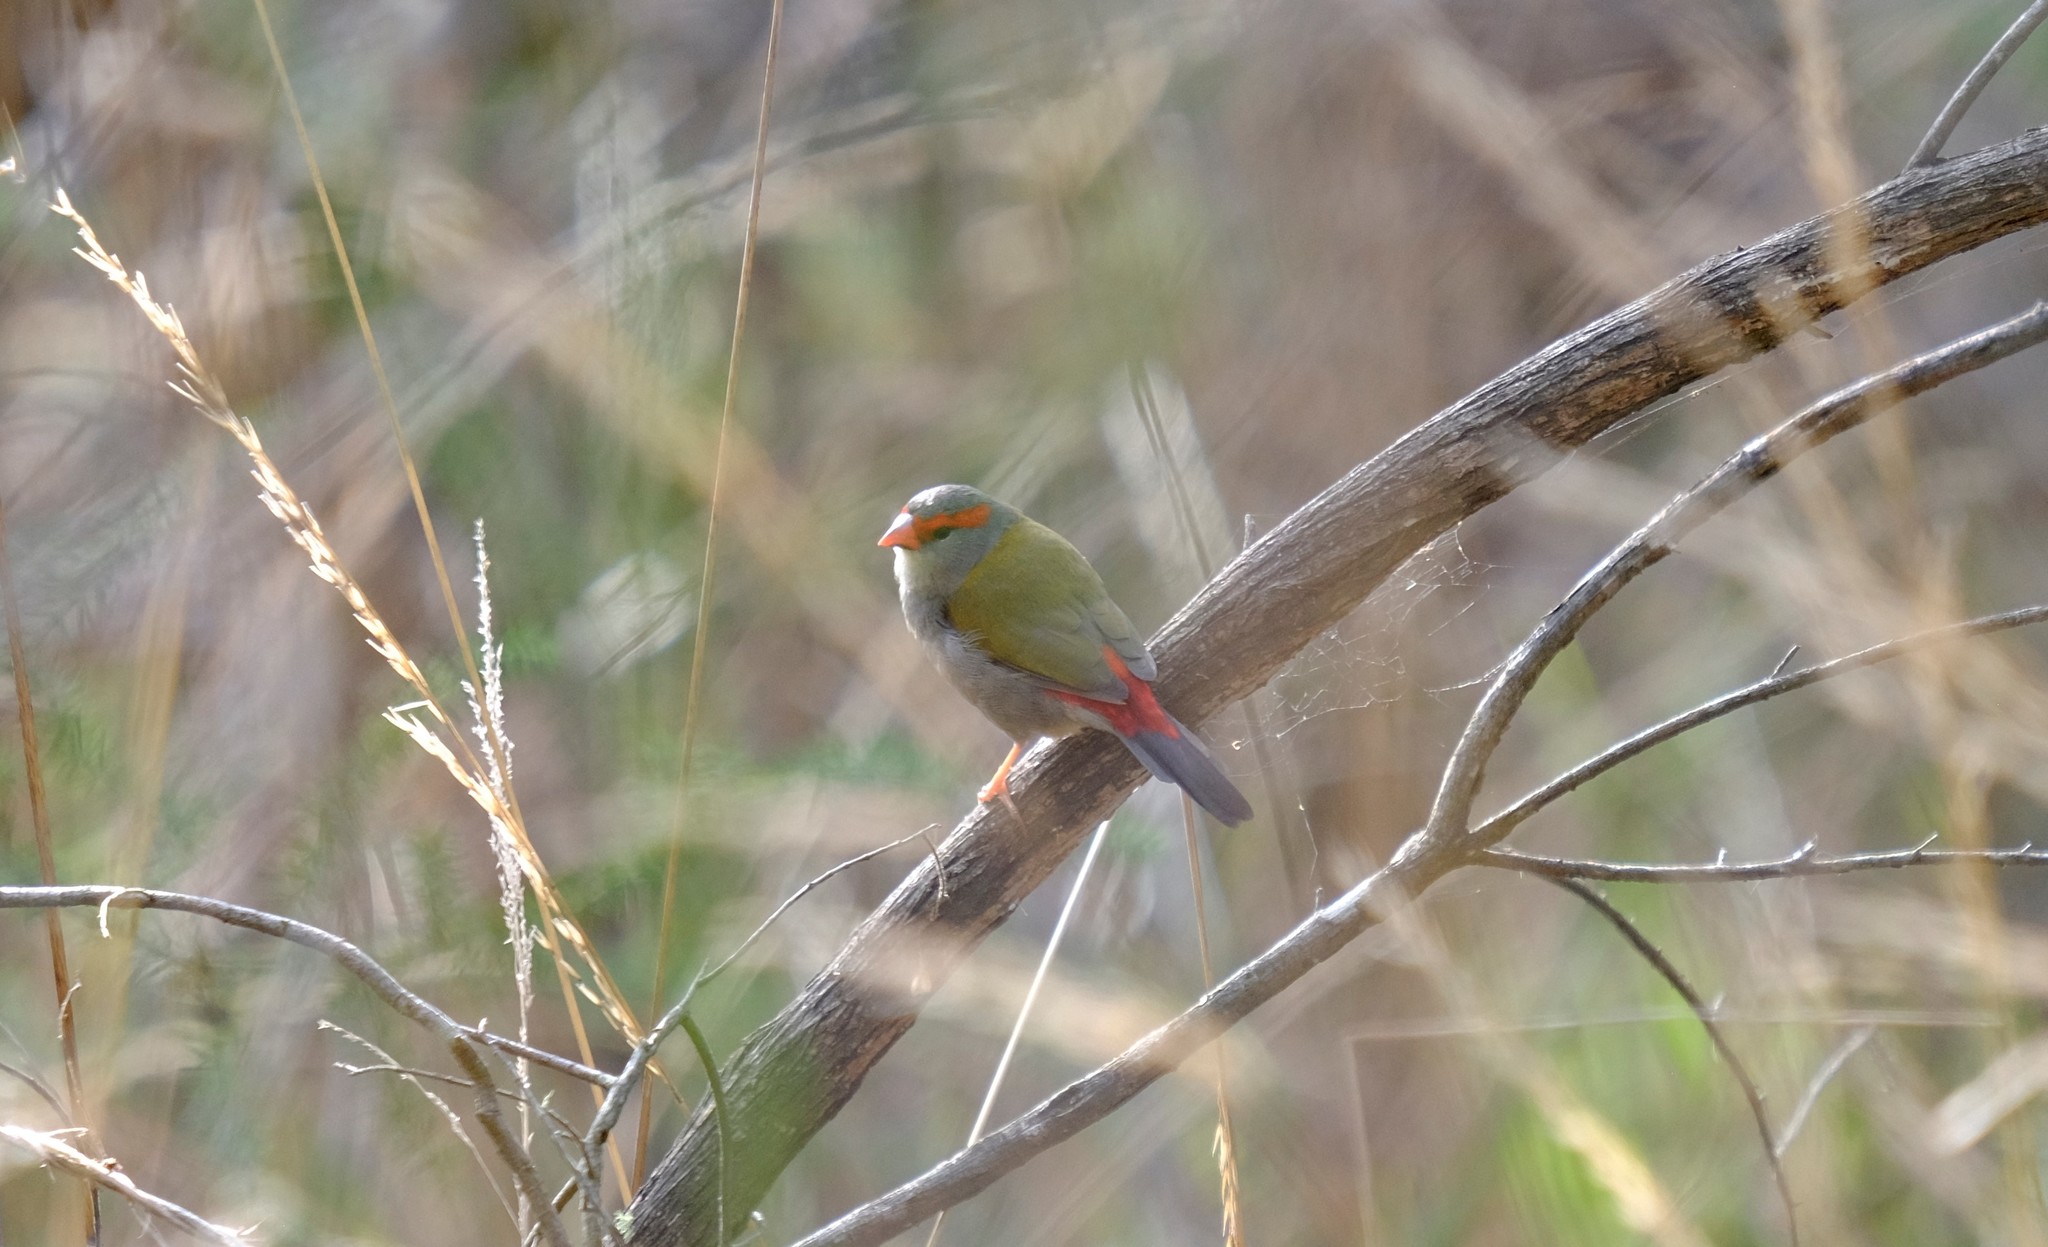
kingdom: Animalia
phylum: Chordata
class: Aves
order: Passeriformes
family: Estrildidae
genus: Neochmia
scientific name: Neochmia temporalis
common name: Red-browed finch
